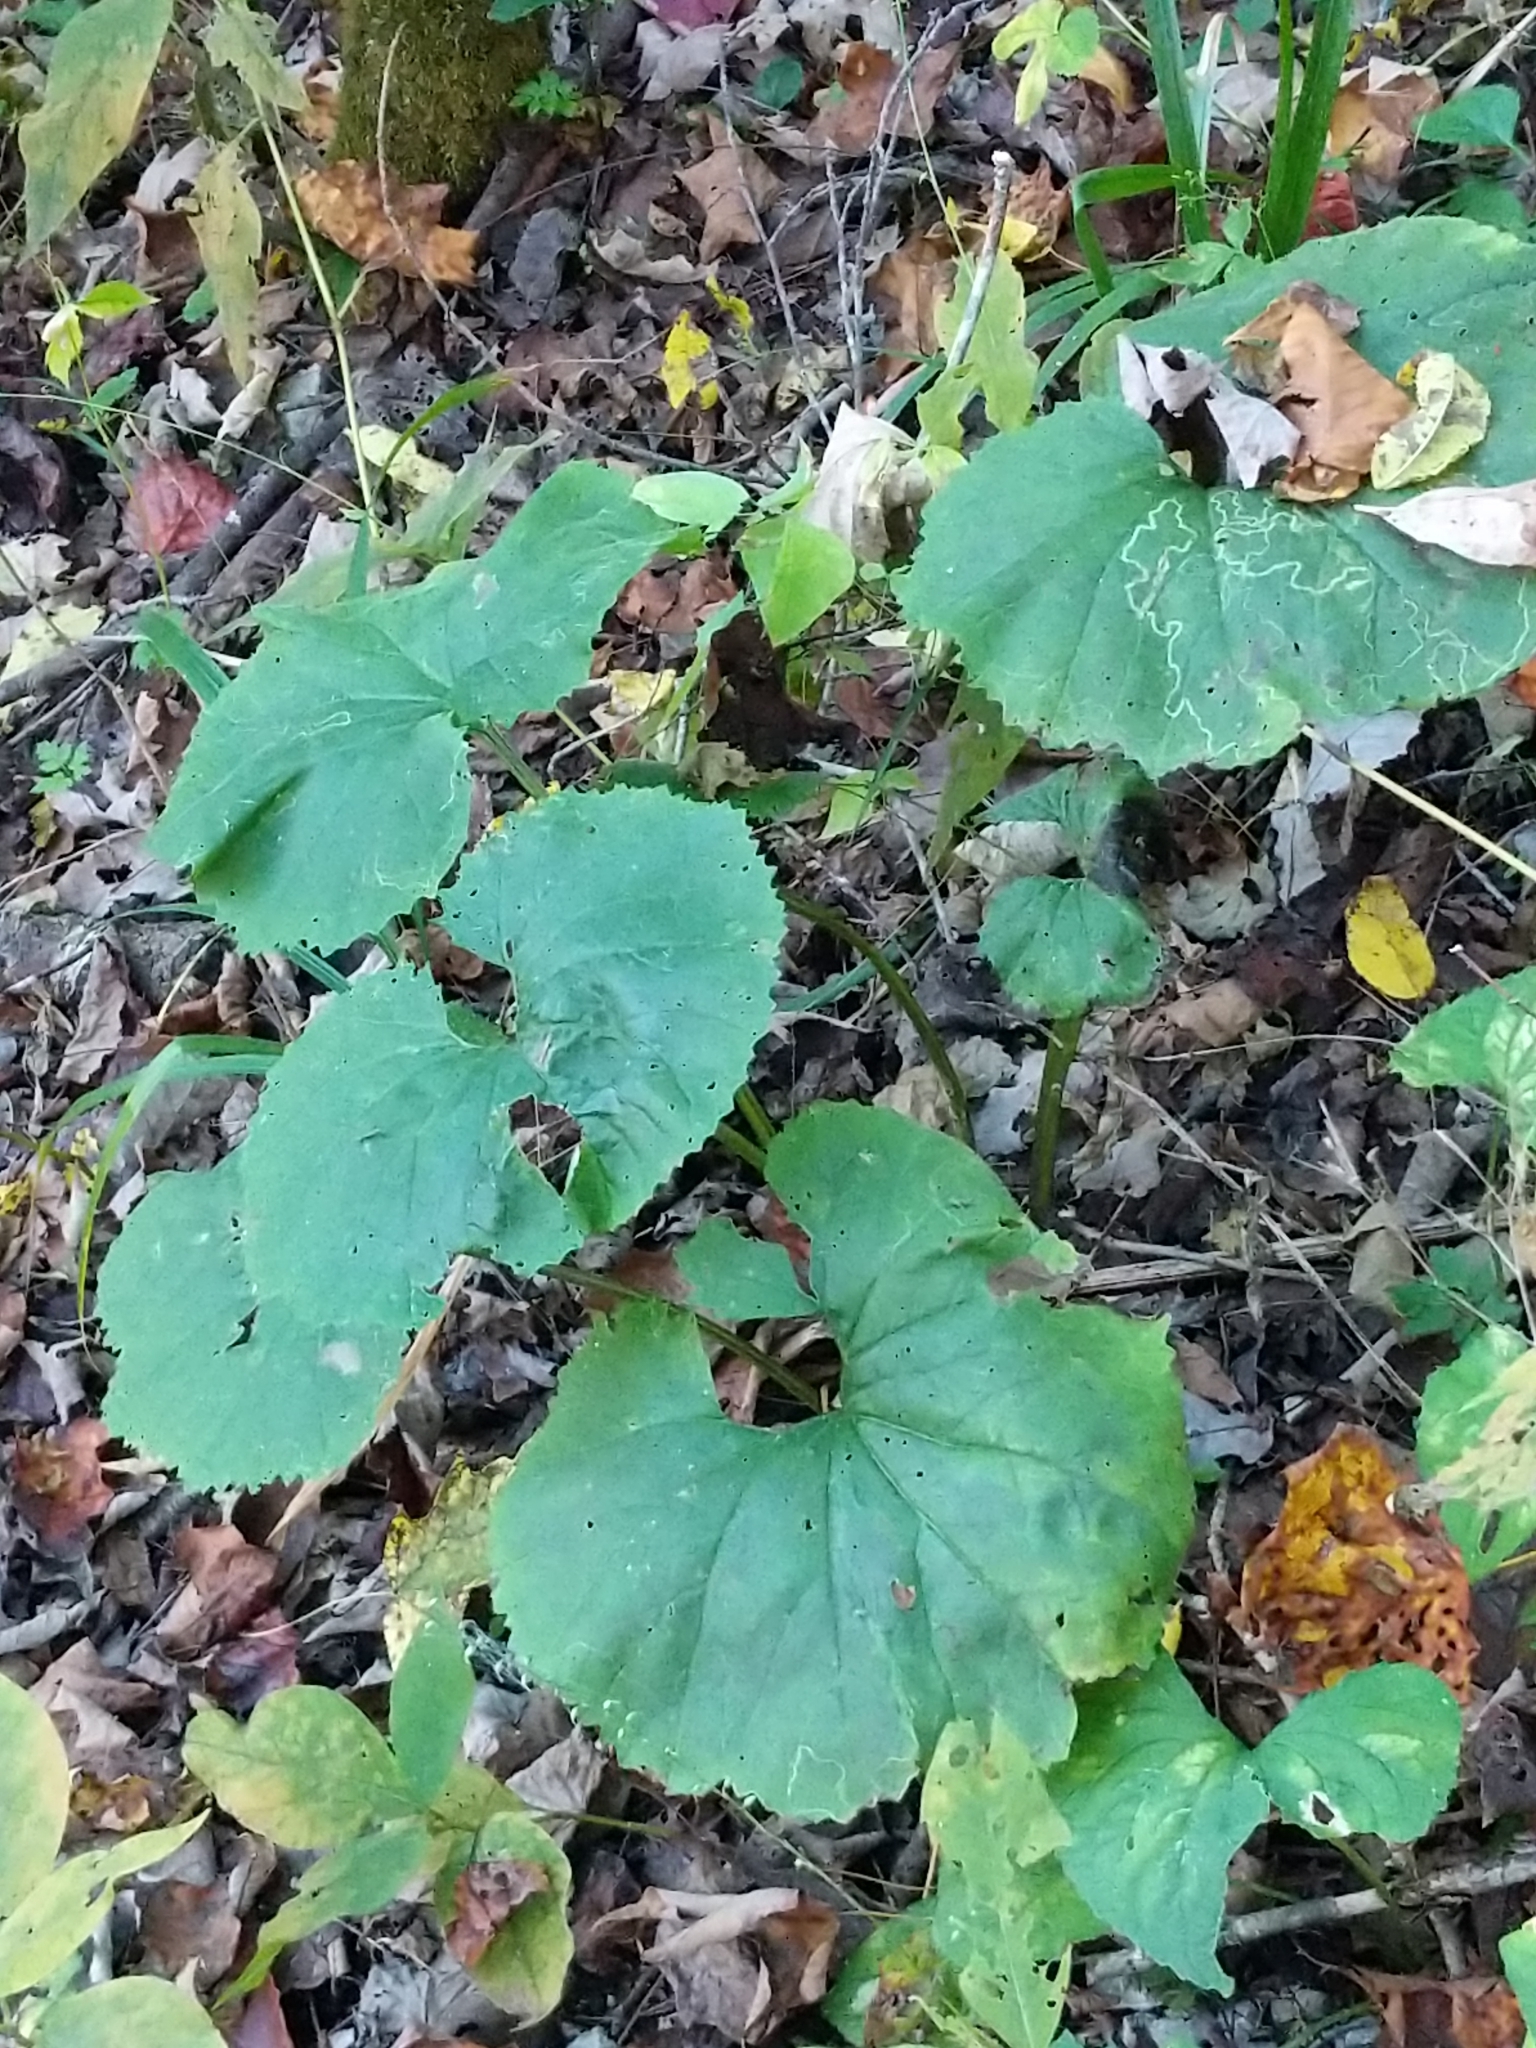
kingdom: Plantae
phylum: Tracheophyta
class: Magnoliopsida
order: Asterales
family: Asteraceae
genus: Arnoglossum
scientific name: Arnoglossum reniforme
